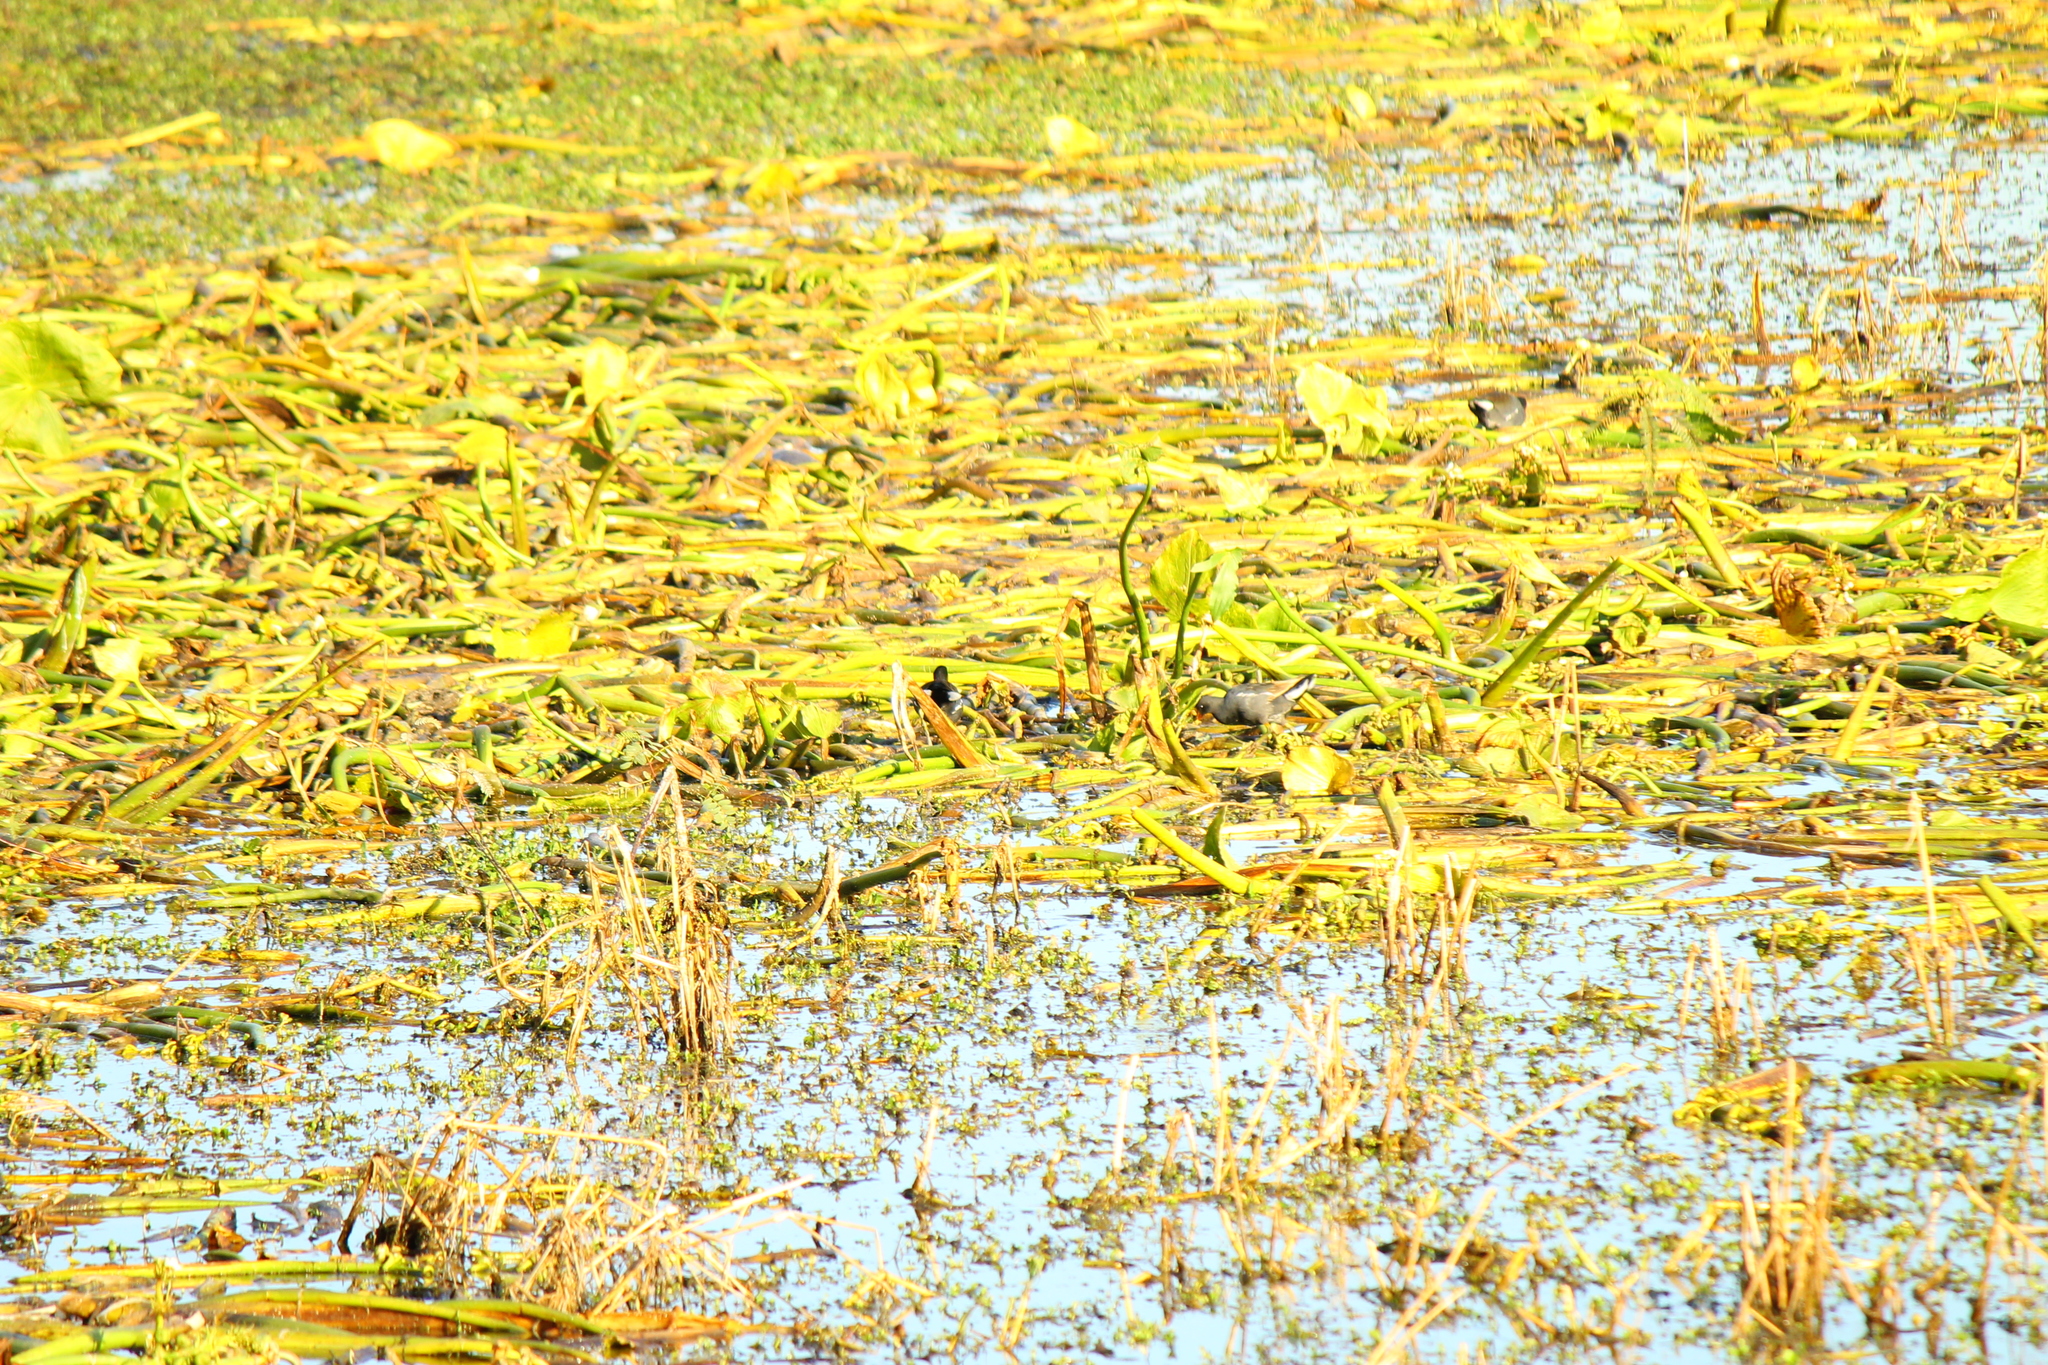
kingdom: Animalia
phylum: Chordata
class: Aves
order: Gruiformes
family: Rallidae
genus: Gallinula
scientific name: Gallinula chloropus
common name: Common moorhen
